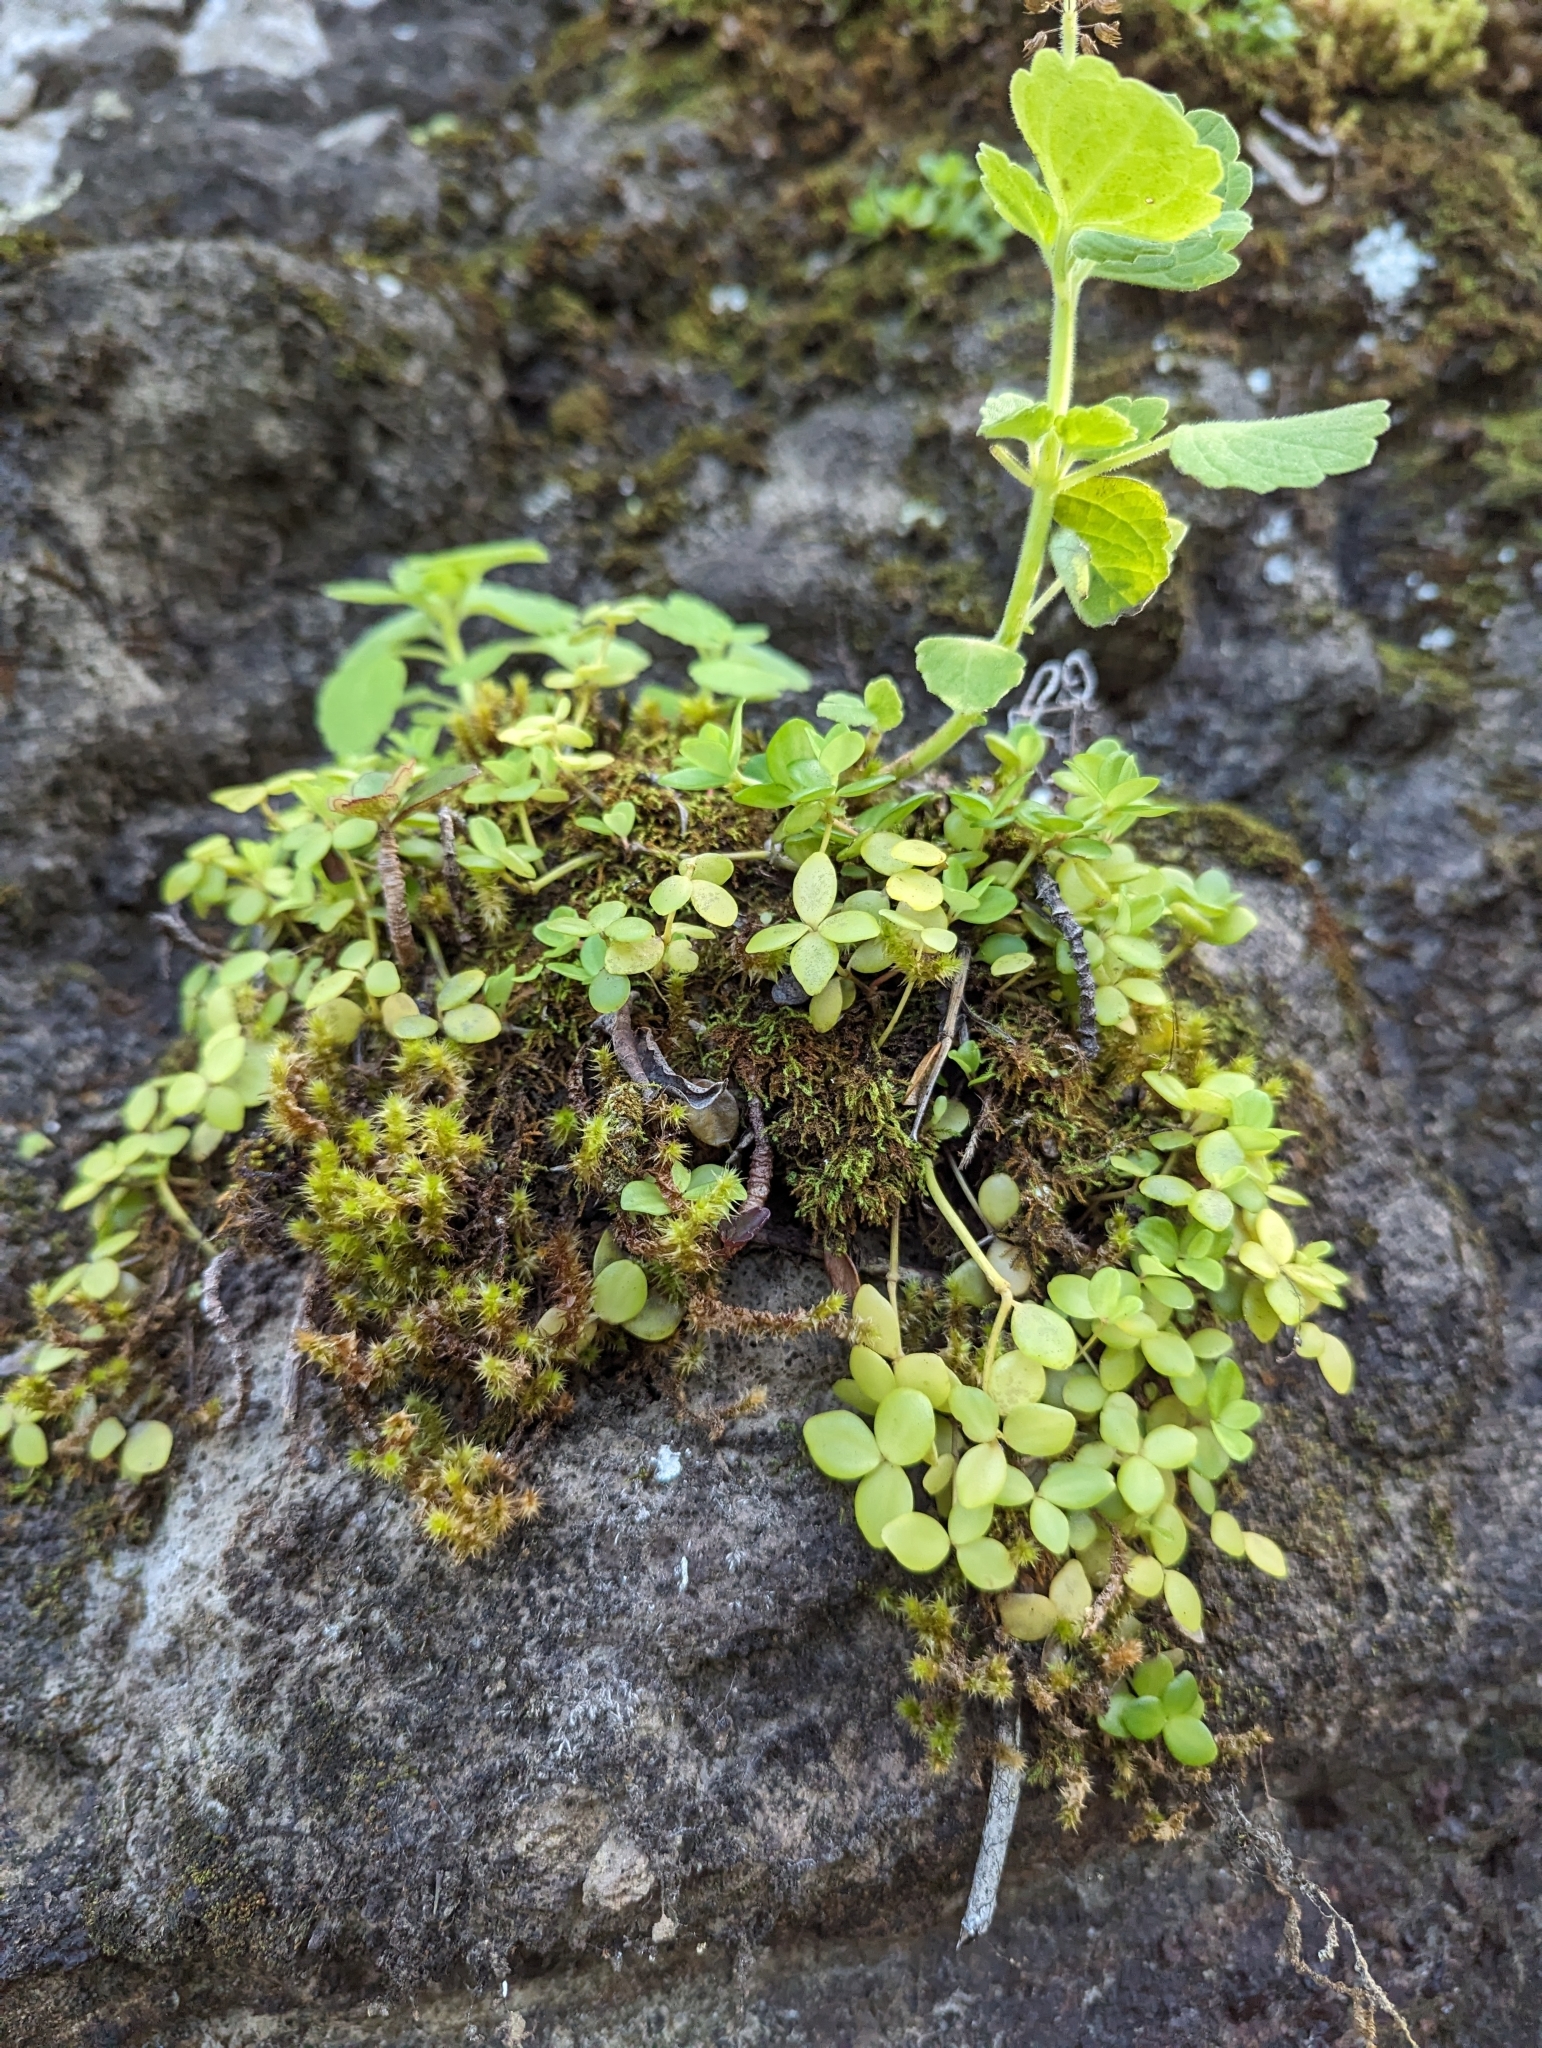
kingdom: Plantae
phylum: Tracheophyta
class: Magnoliopsida
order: Piperales
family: Piperaceae
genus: Peperomia
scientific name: Peperomia tetraphylla
